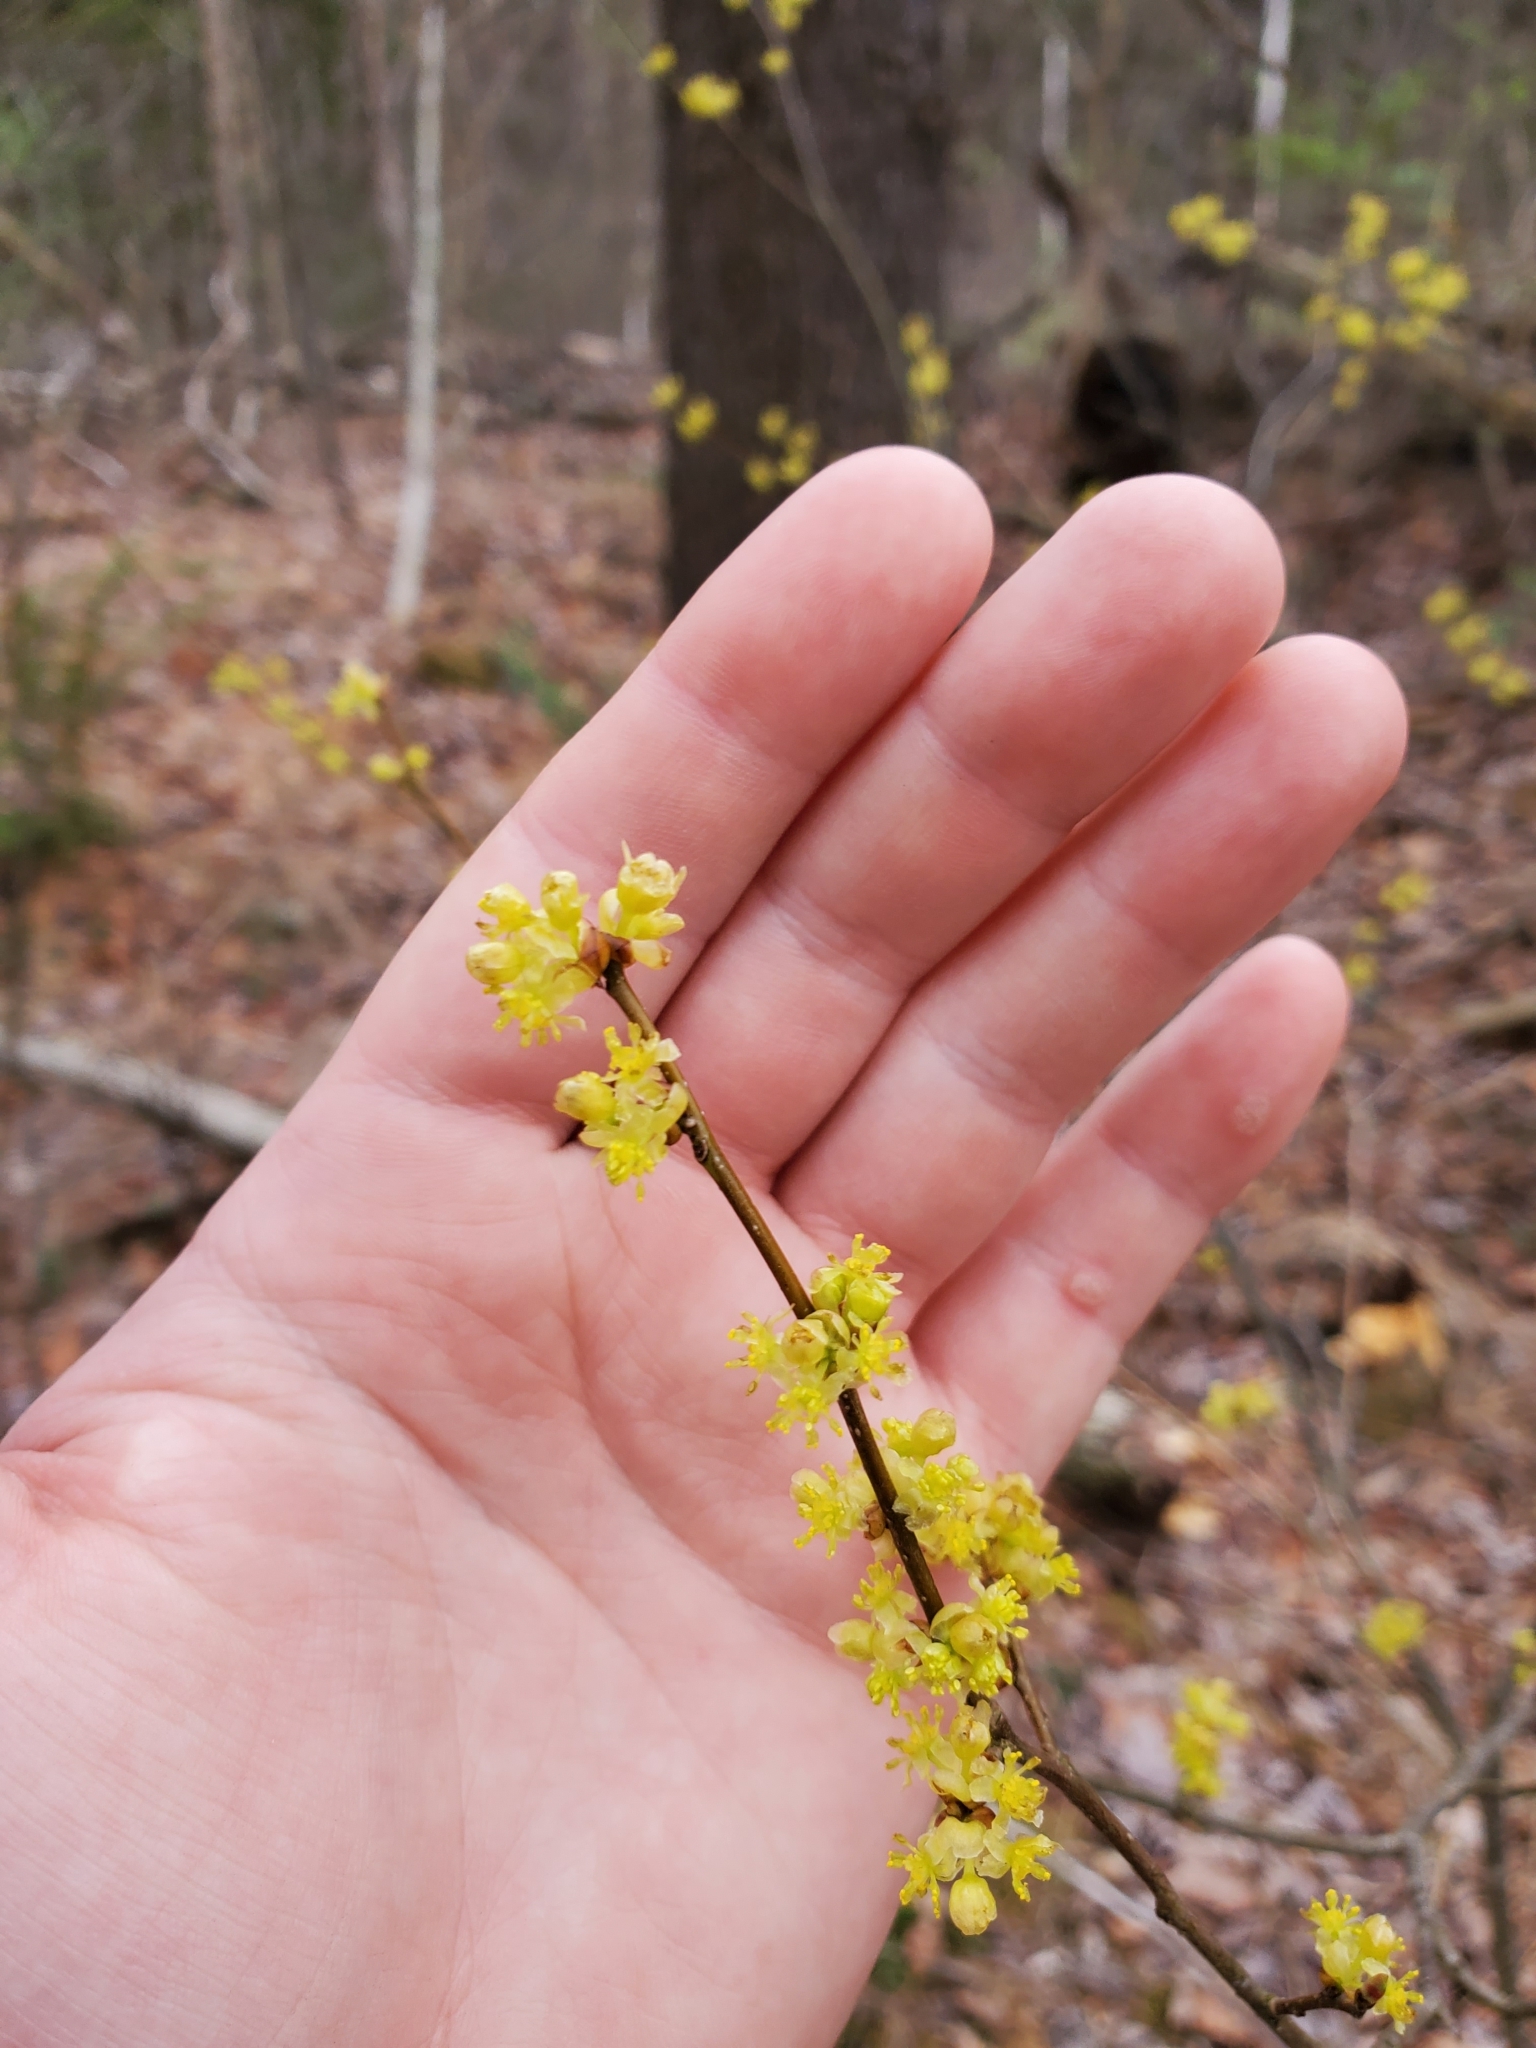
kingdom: Plantae
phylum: Tracheophyta
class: Magnoliopsida
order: Laurales
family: Lauraceae
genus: Lindera
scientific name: Lindera benzoin
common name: Spicebush
